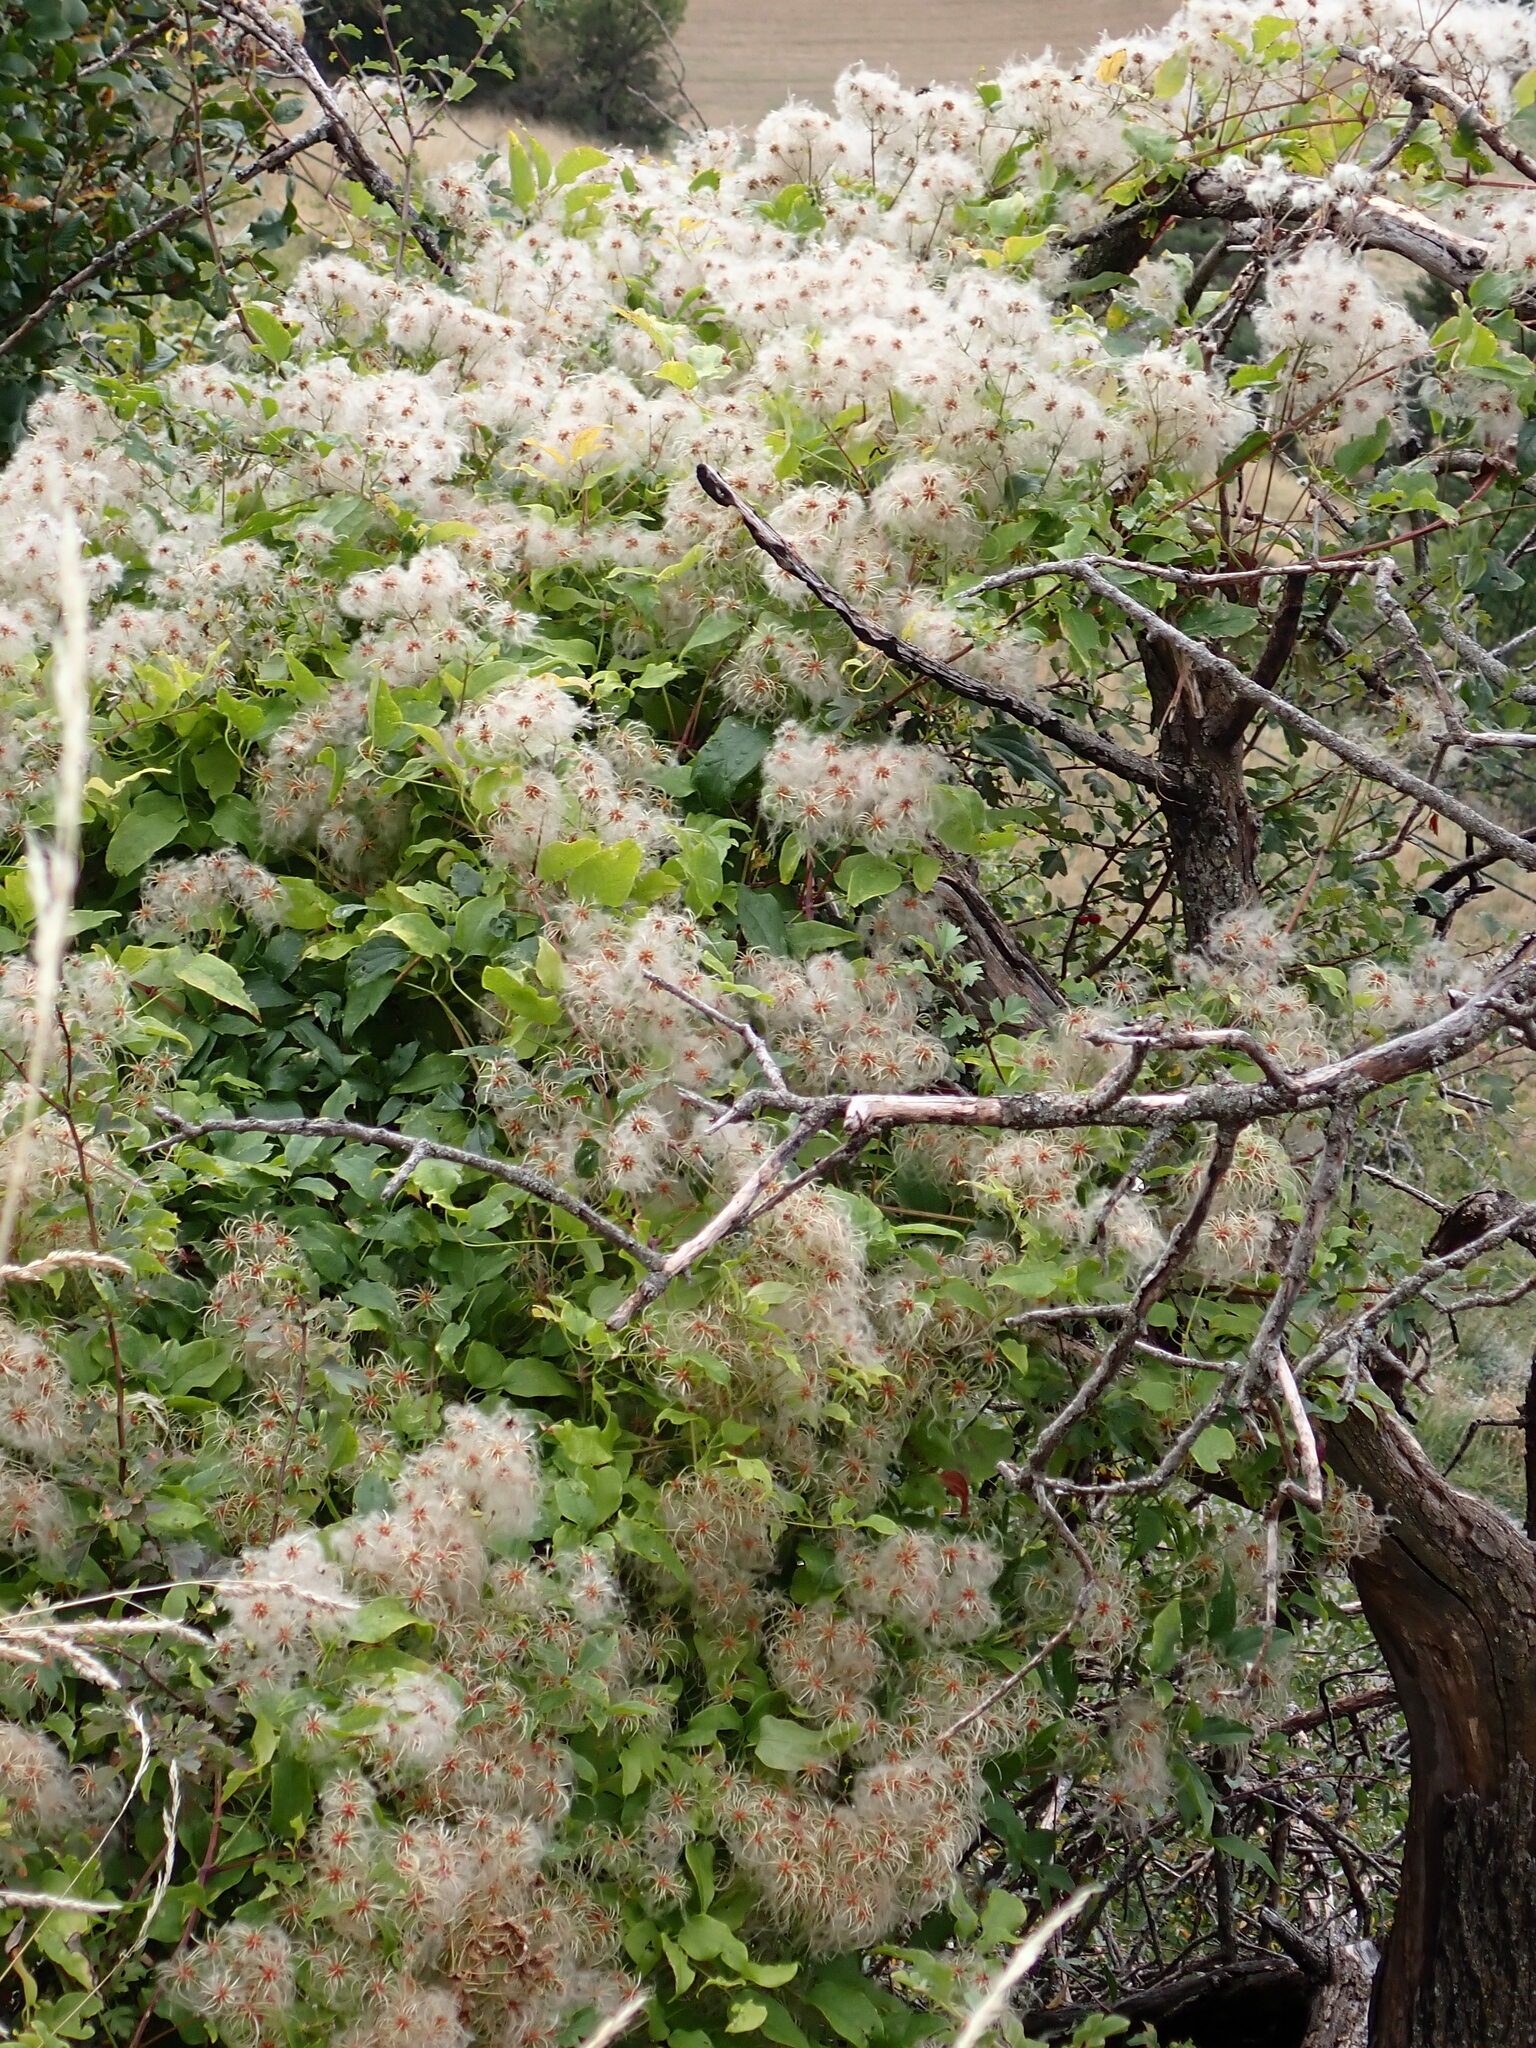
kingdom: Plantae
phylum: Tracheophyta
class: Magnoliopsida
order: Ranunculales
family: Ranunculaceae
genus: Clematis
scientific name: Clematis vitalba
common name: Evergreen clematis
